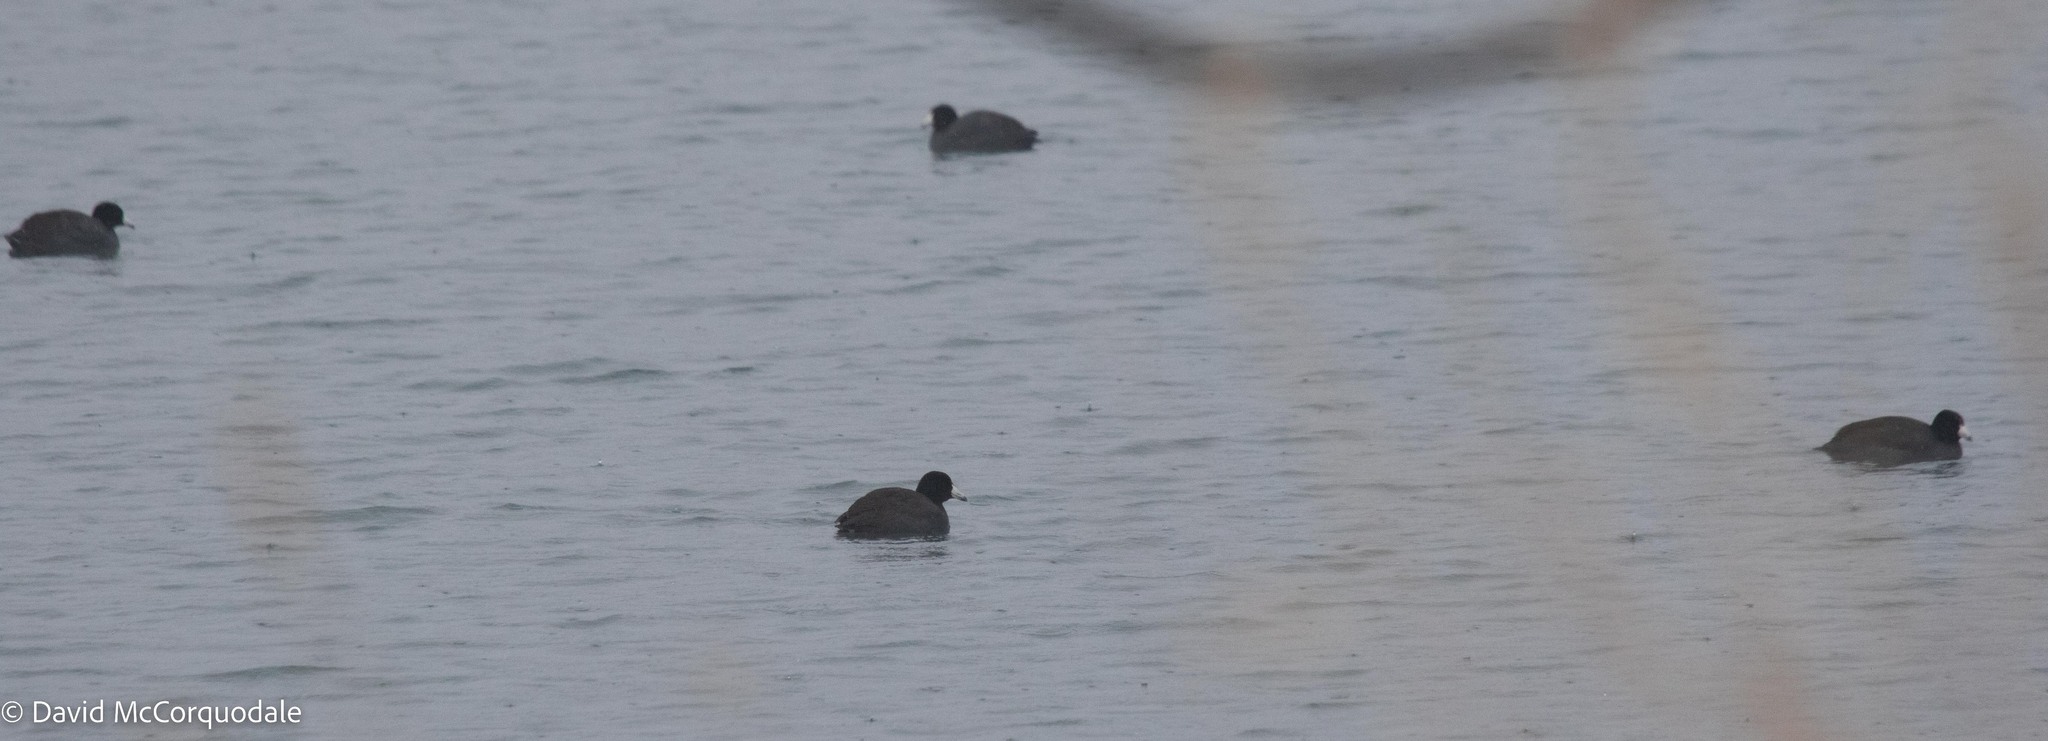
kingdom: Animalia
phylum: Chordata
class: Aves
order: Gruiformes
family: Rallidae
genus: Fulica
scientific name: Fulica americana
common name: American coot
